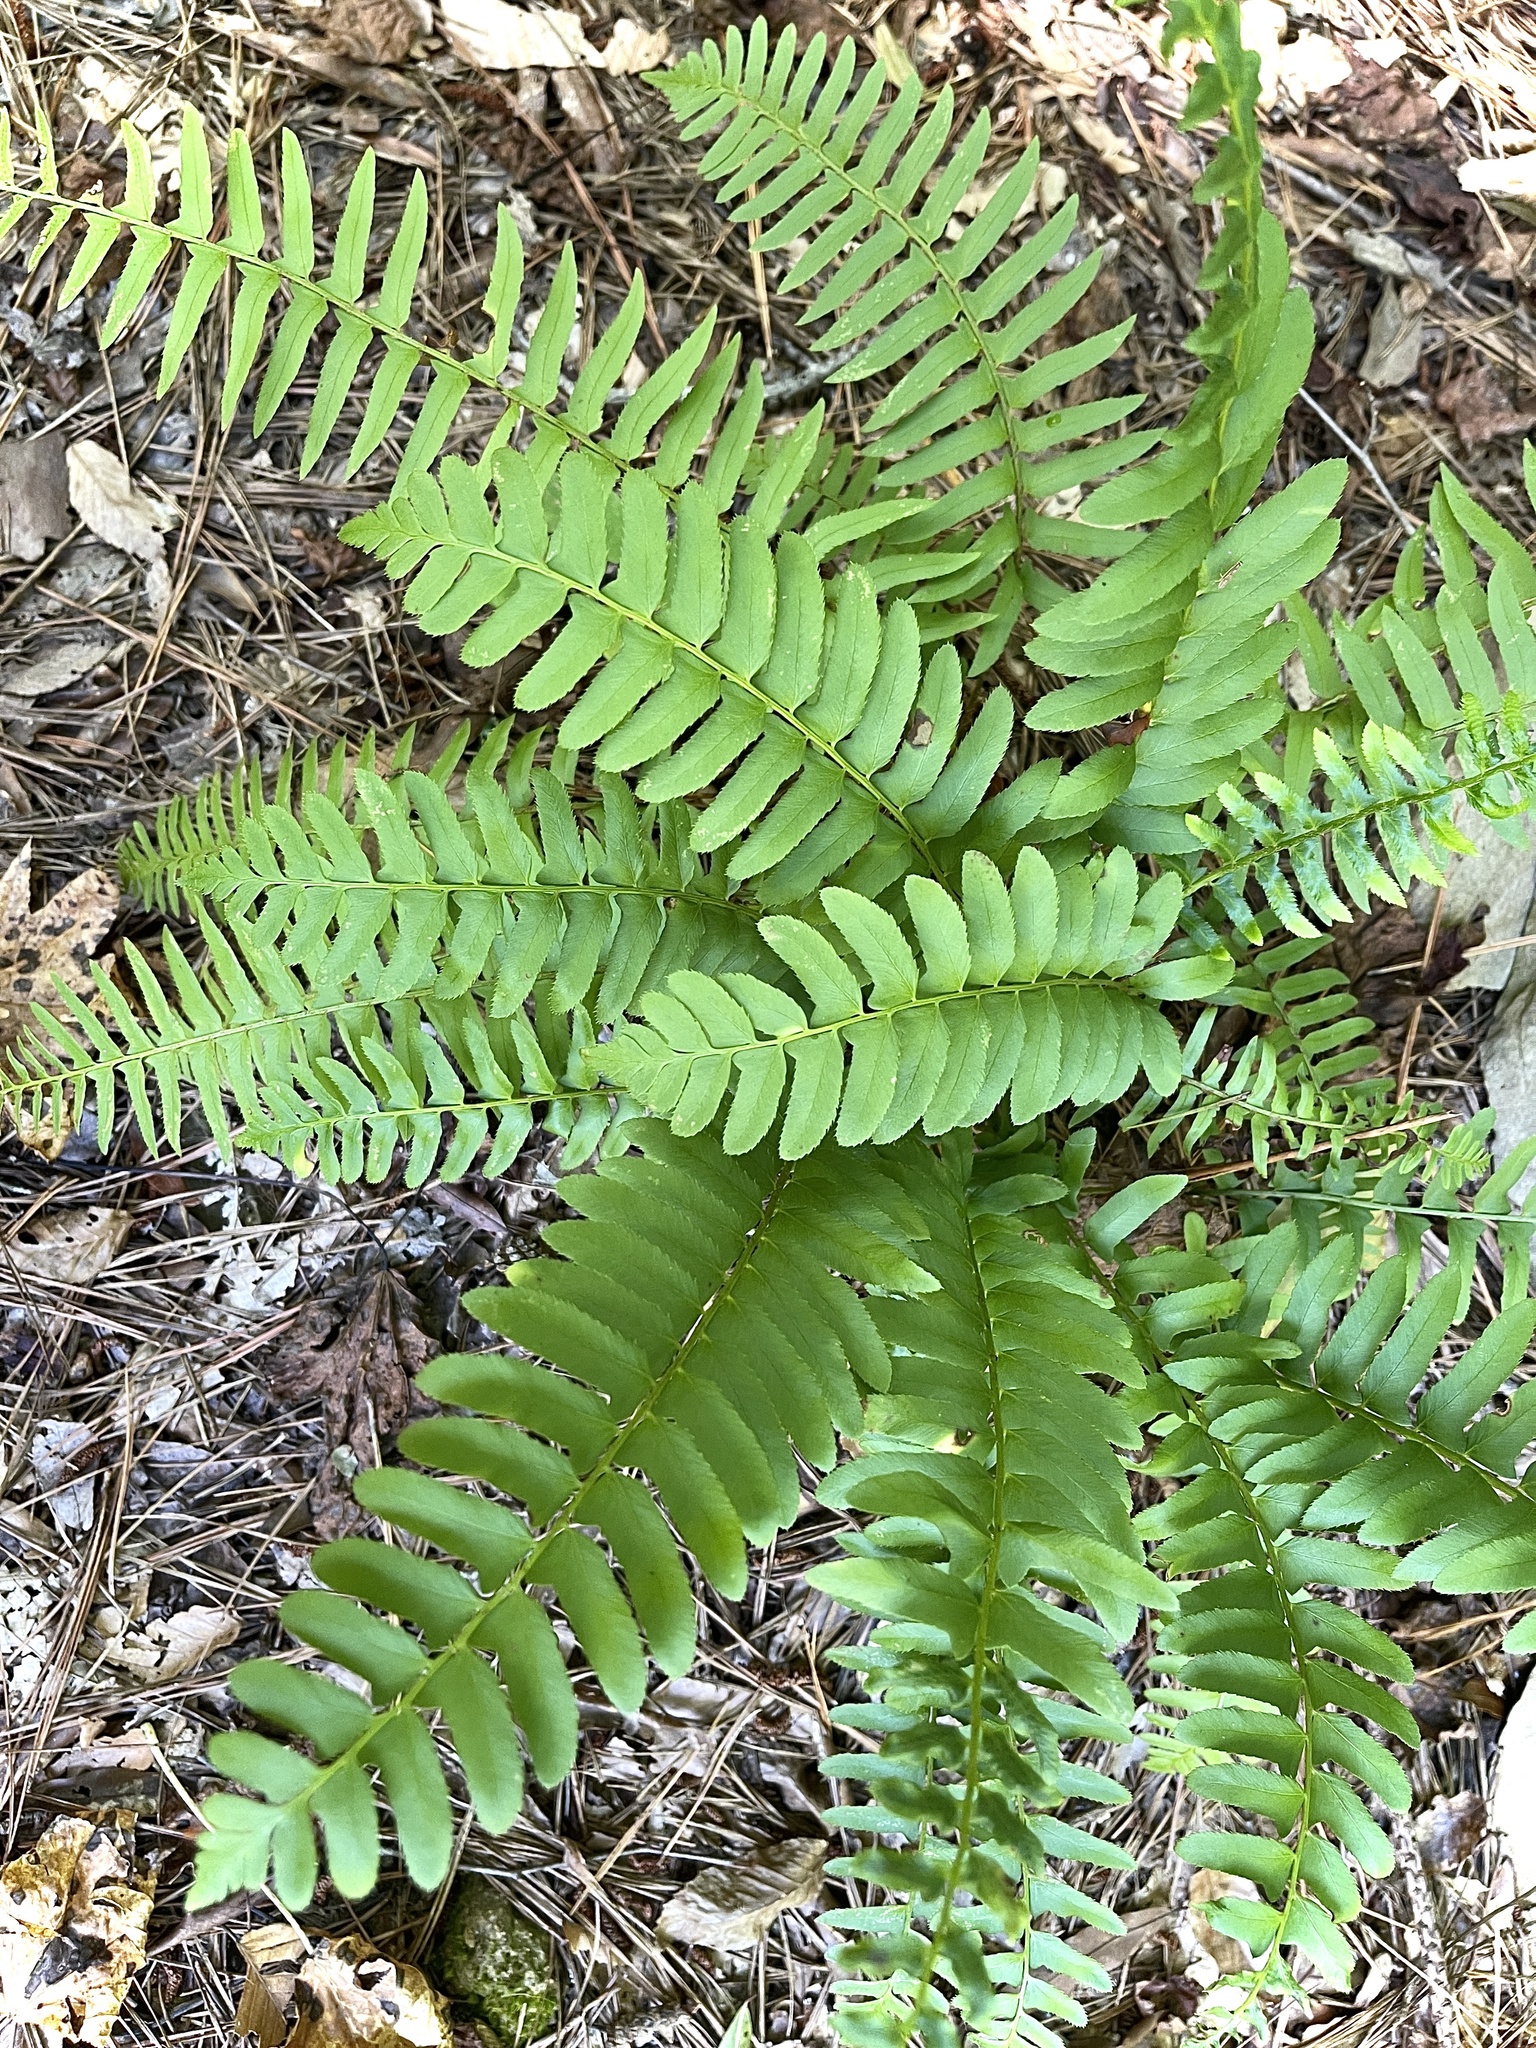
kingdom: Plantae
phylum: Tracheophyta
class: Polypodiopsida
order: Polypodiales
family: Dryopteridaceae
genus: Polystichum
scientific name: Polystichum acrostichoides
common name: Christmas fern
